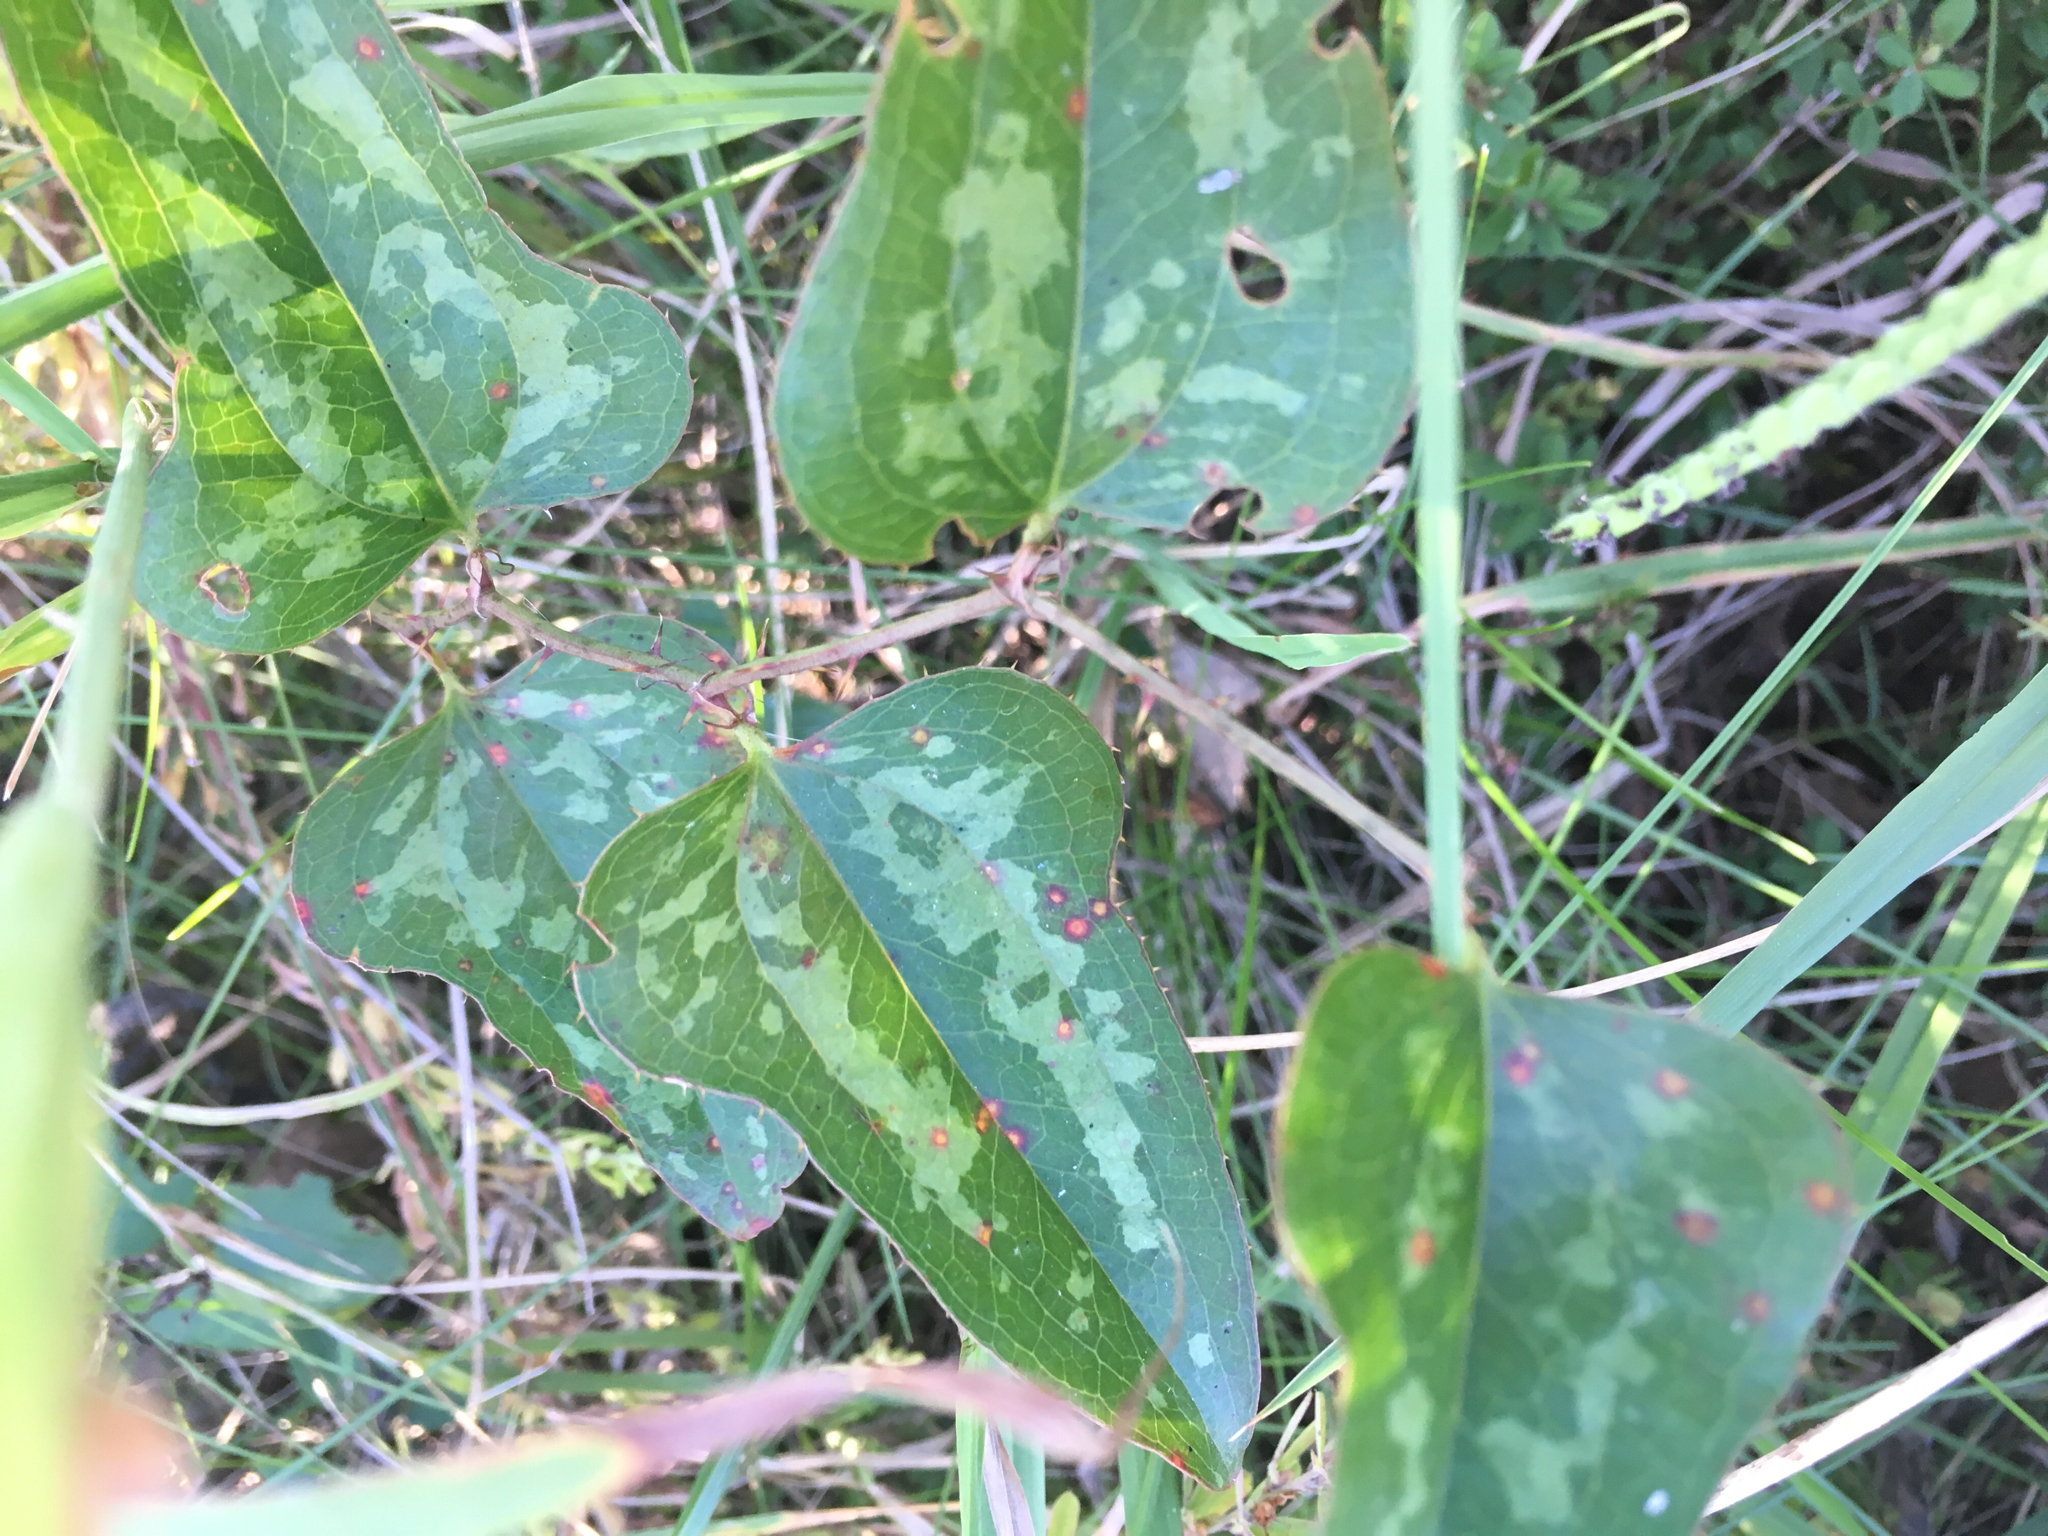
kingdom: Plantae
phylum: Tracheophyta
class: Liliopsida
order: Liliales
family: Smilacaceae
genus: Smilax
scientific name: Smilax bona-nox
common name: Catbrier
